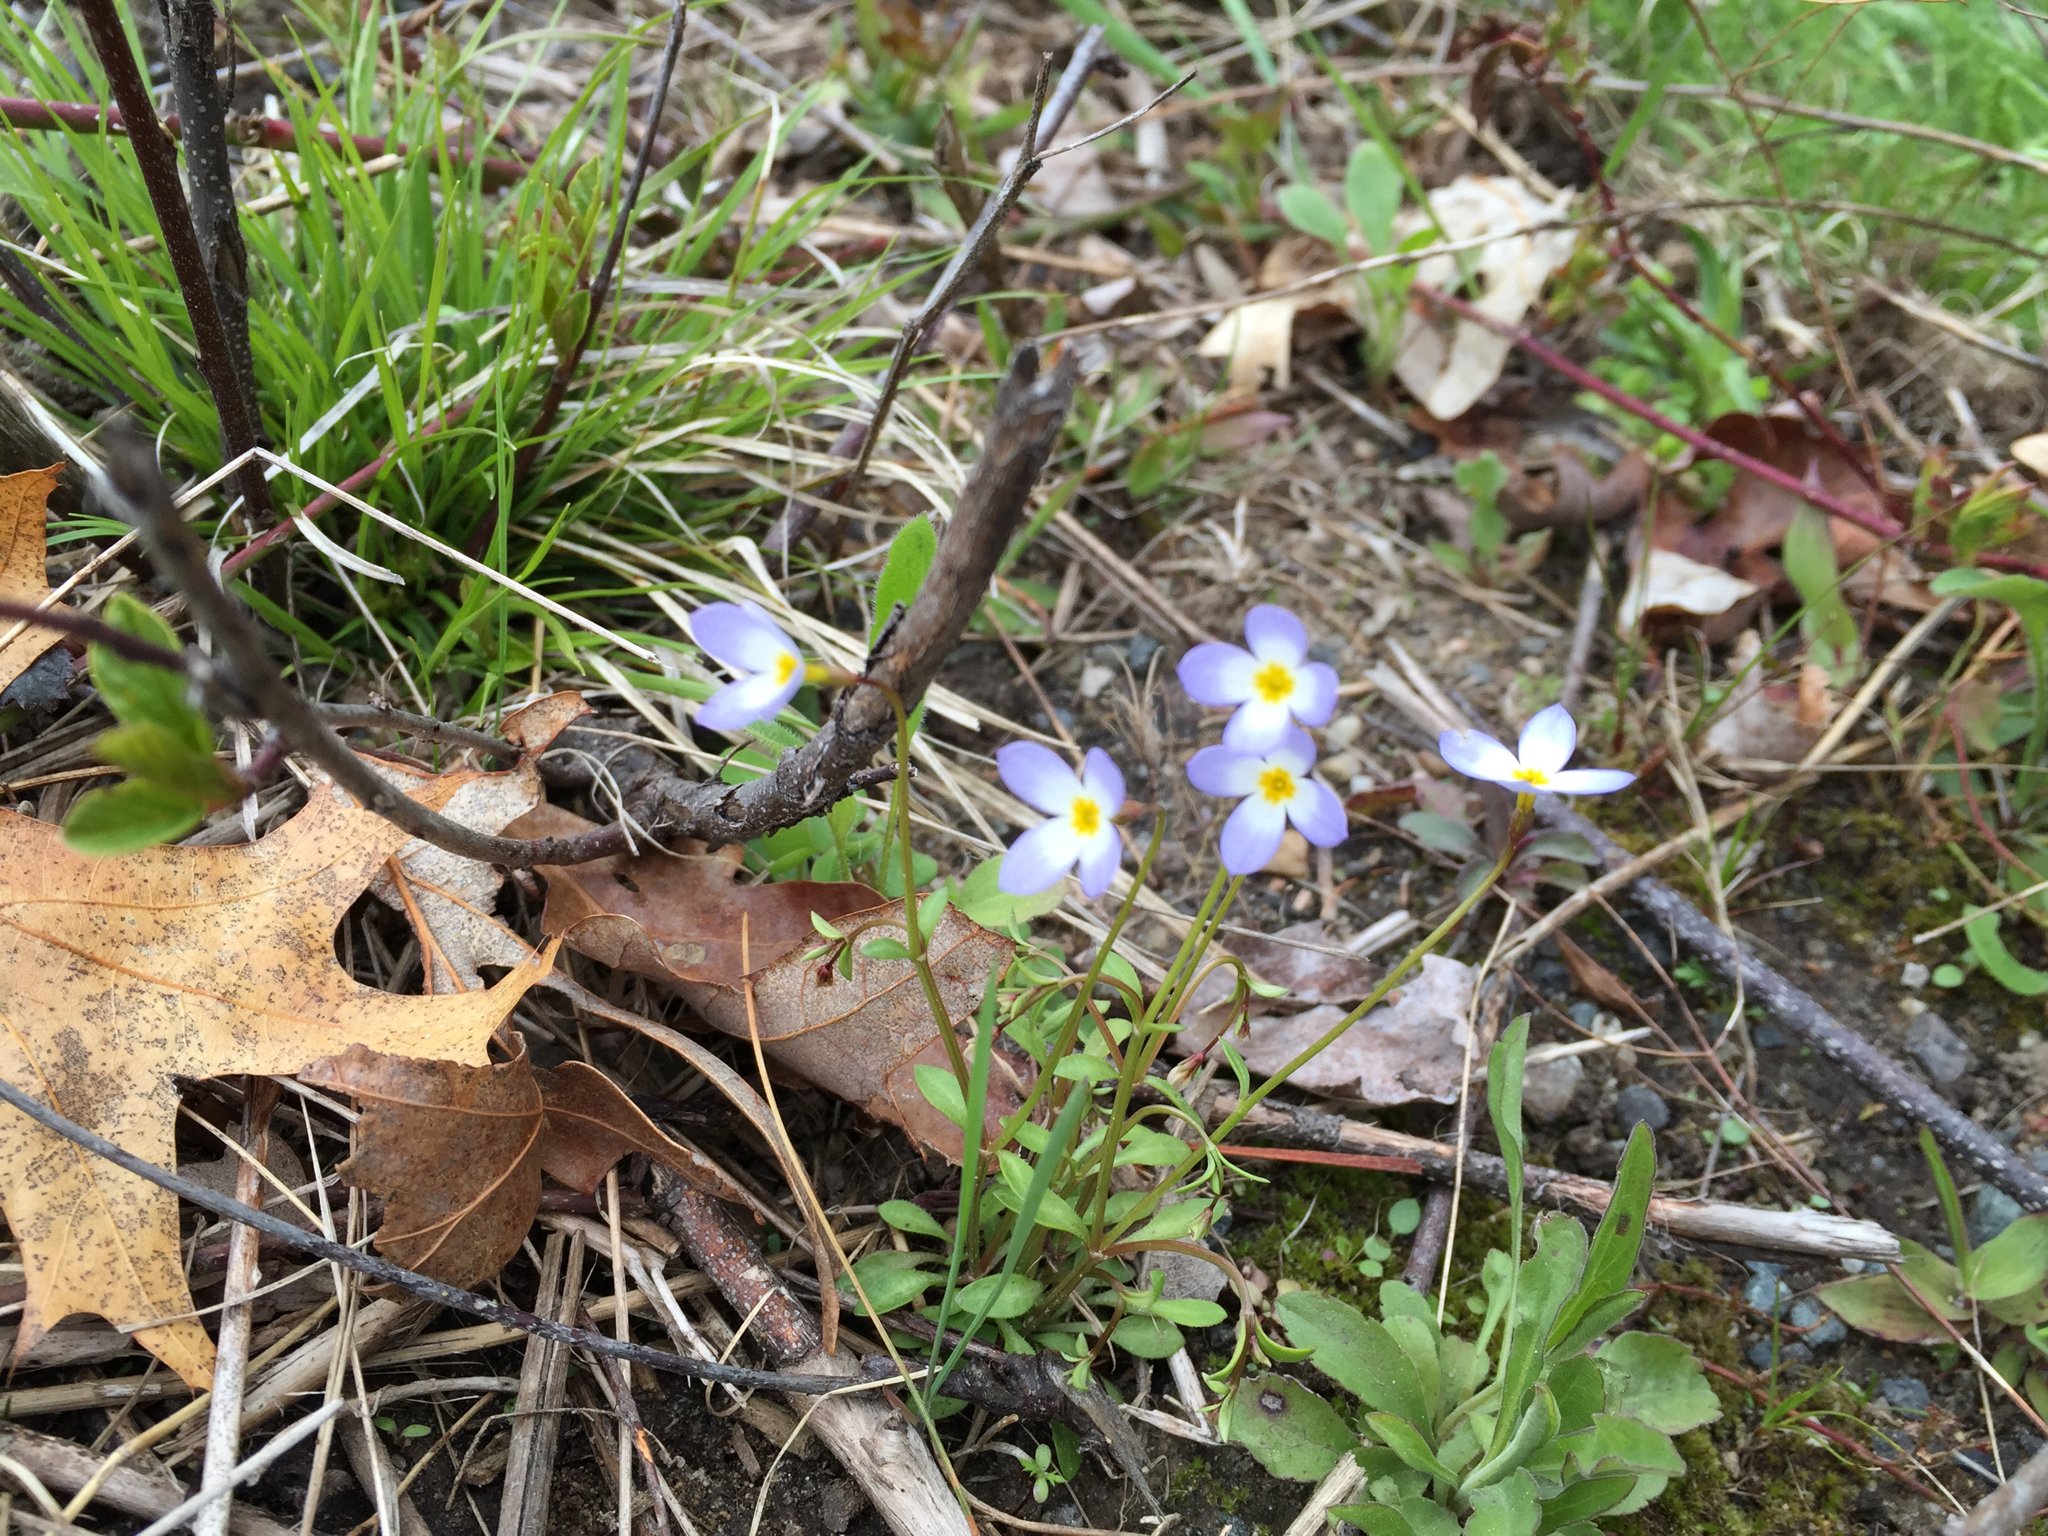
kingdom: Plantae
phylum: Tracheophyta
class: Magnoliopsida
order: Gentianales
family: Rubiaceae
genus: Houstonia
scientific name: Houstonia caerulea
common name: Bluets
